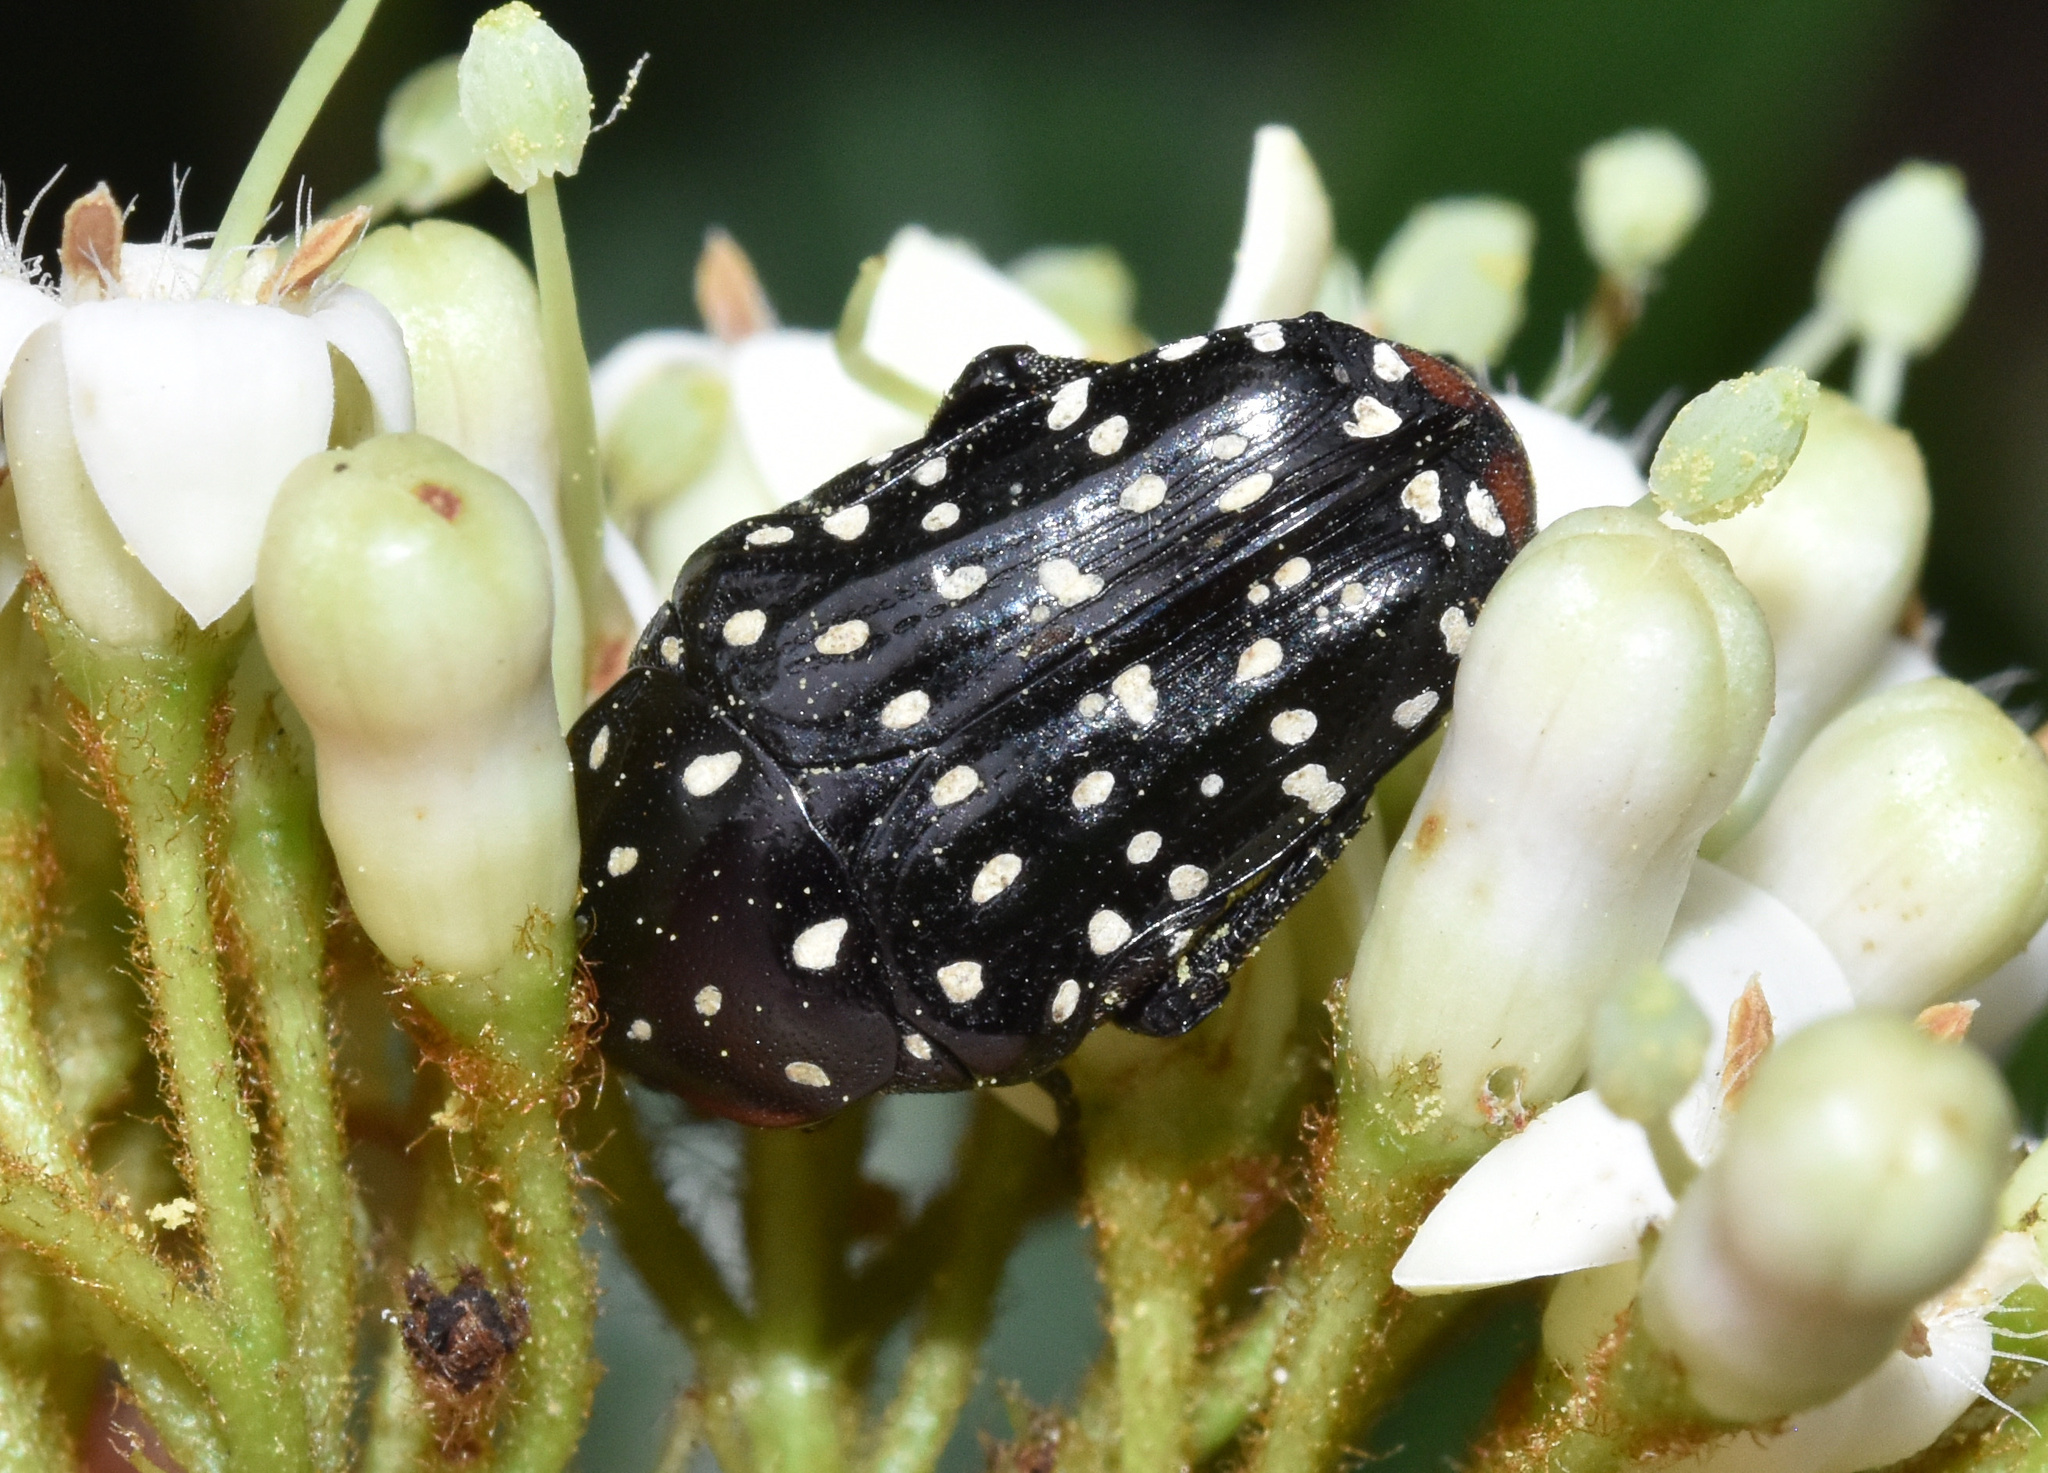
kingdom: Animalia
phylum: Arthropoda
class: Insecta
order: Coleoptera
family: Scarabaeidae
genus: Oxythyrea
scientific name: Oxythyrea
